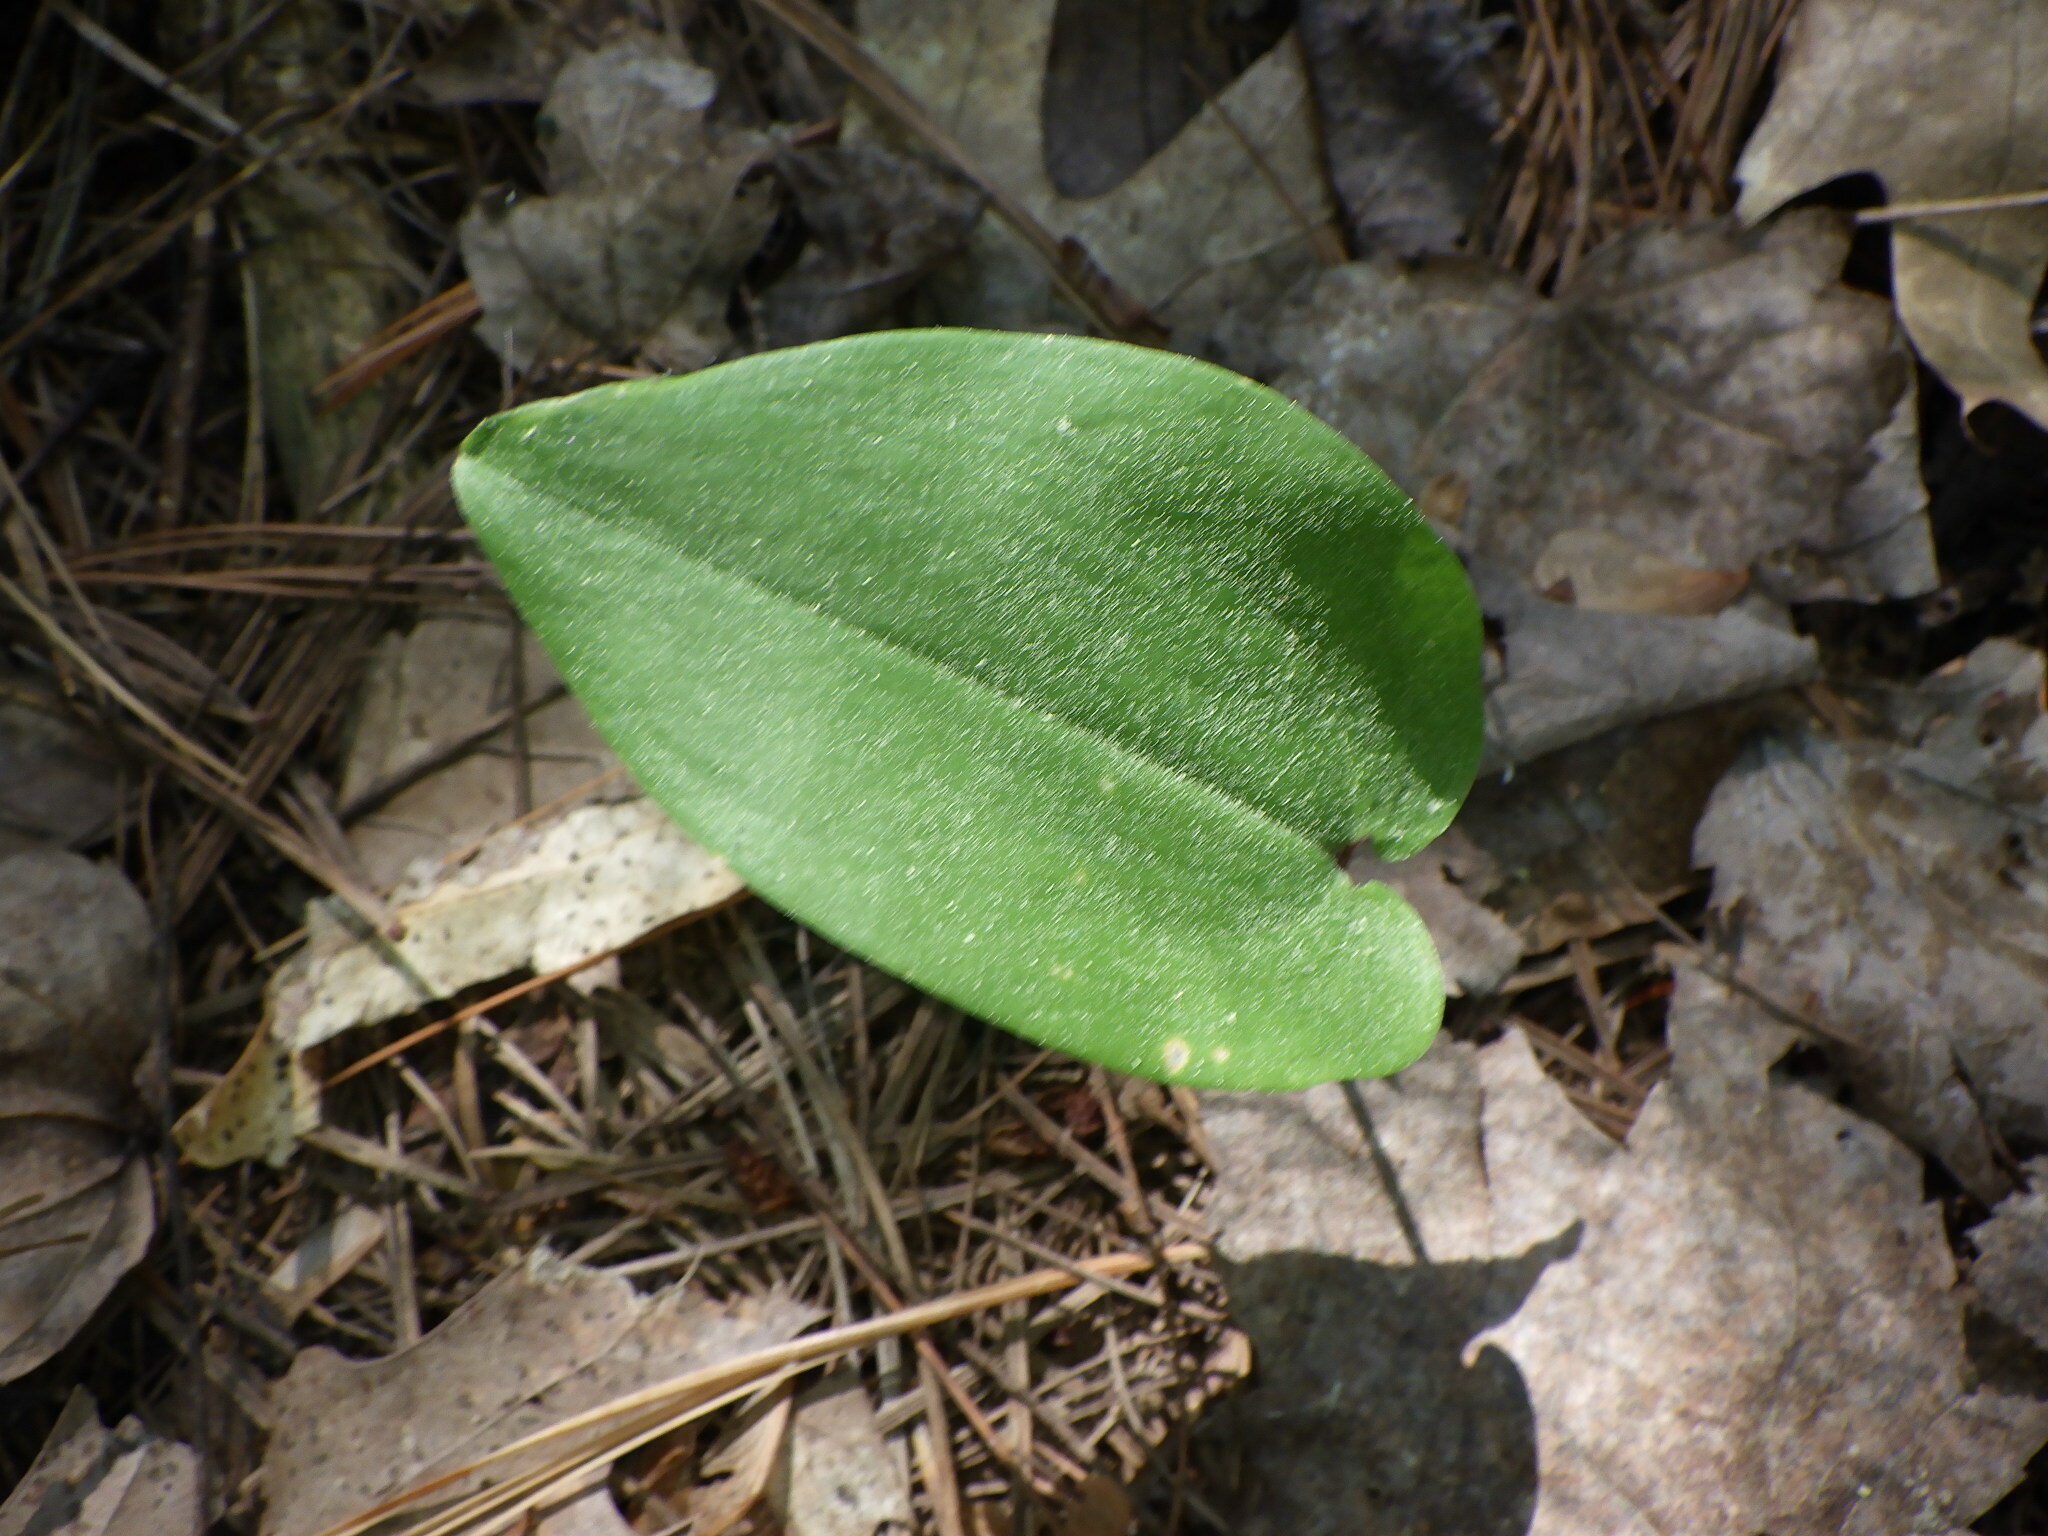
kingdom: Plantae
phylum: Tracheophyta
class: Liliopsida
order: Asparagales
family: Asparagaceae
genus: Maianthemum
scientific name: Maianthemum canadense
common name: False lily-of-the-valley
